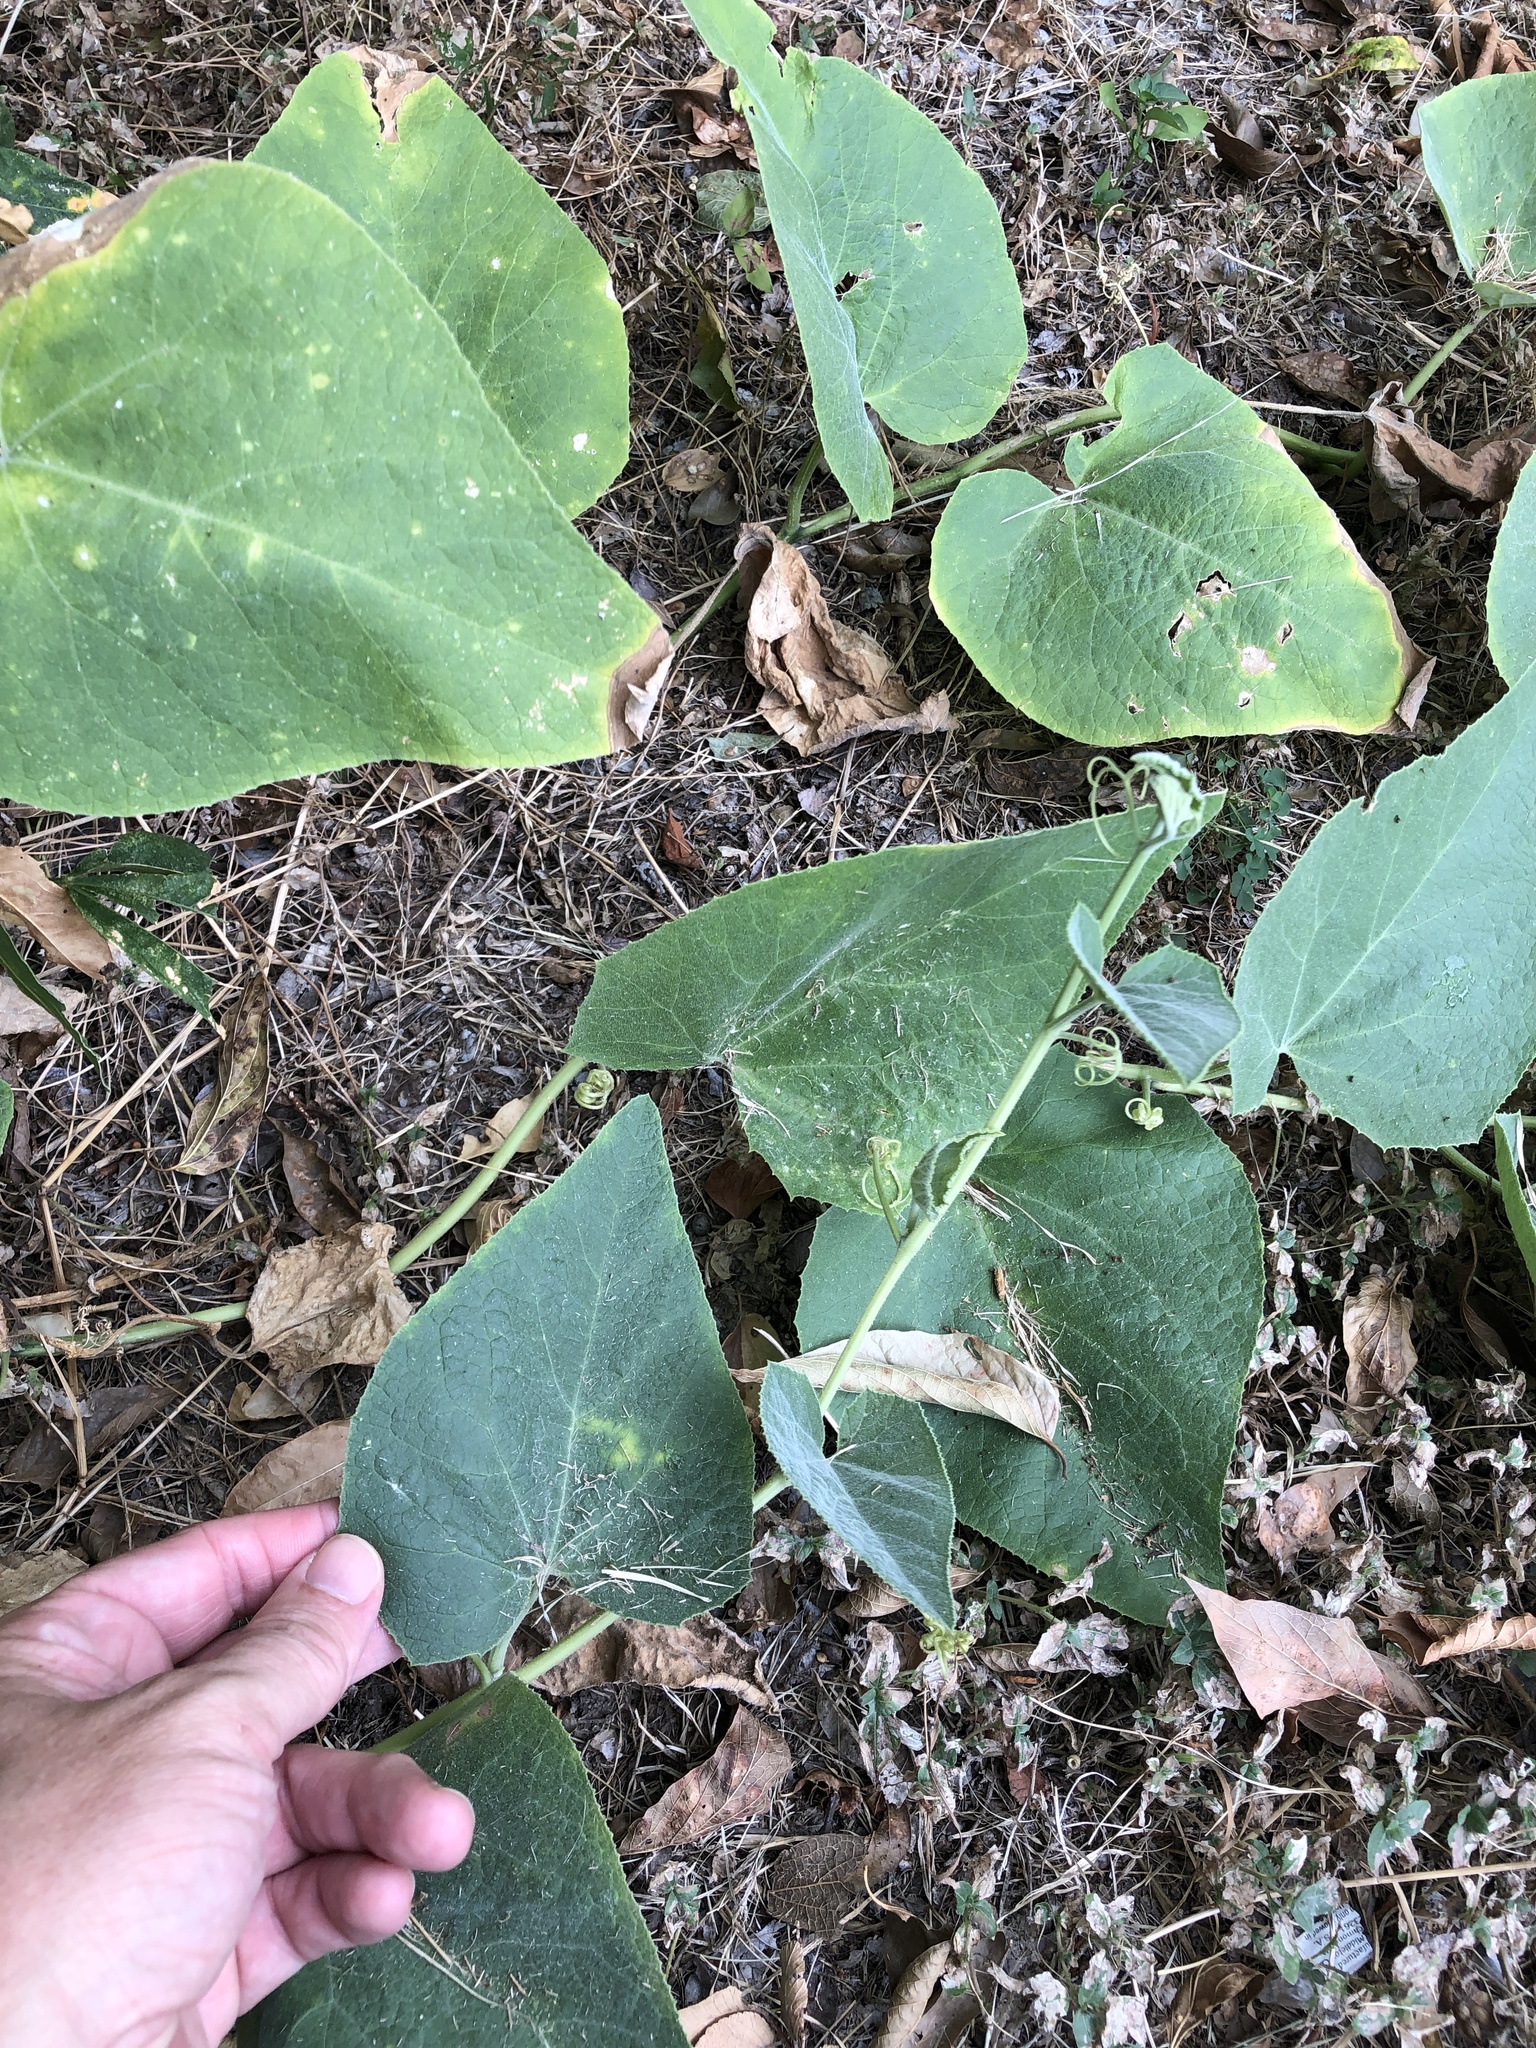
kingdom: Plantae
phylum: Tracheophyta
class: Magnoliopsida
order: Cucurbitales
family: Cucurbitaceae
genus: Cucurbita
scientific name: Cucurbita foetidissima
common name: Buffalo gourd
